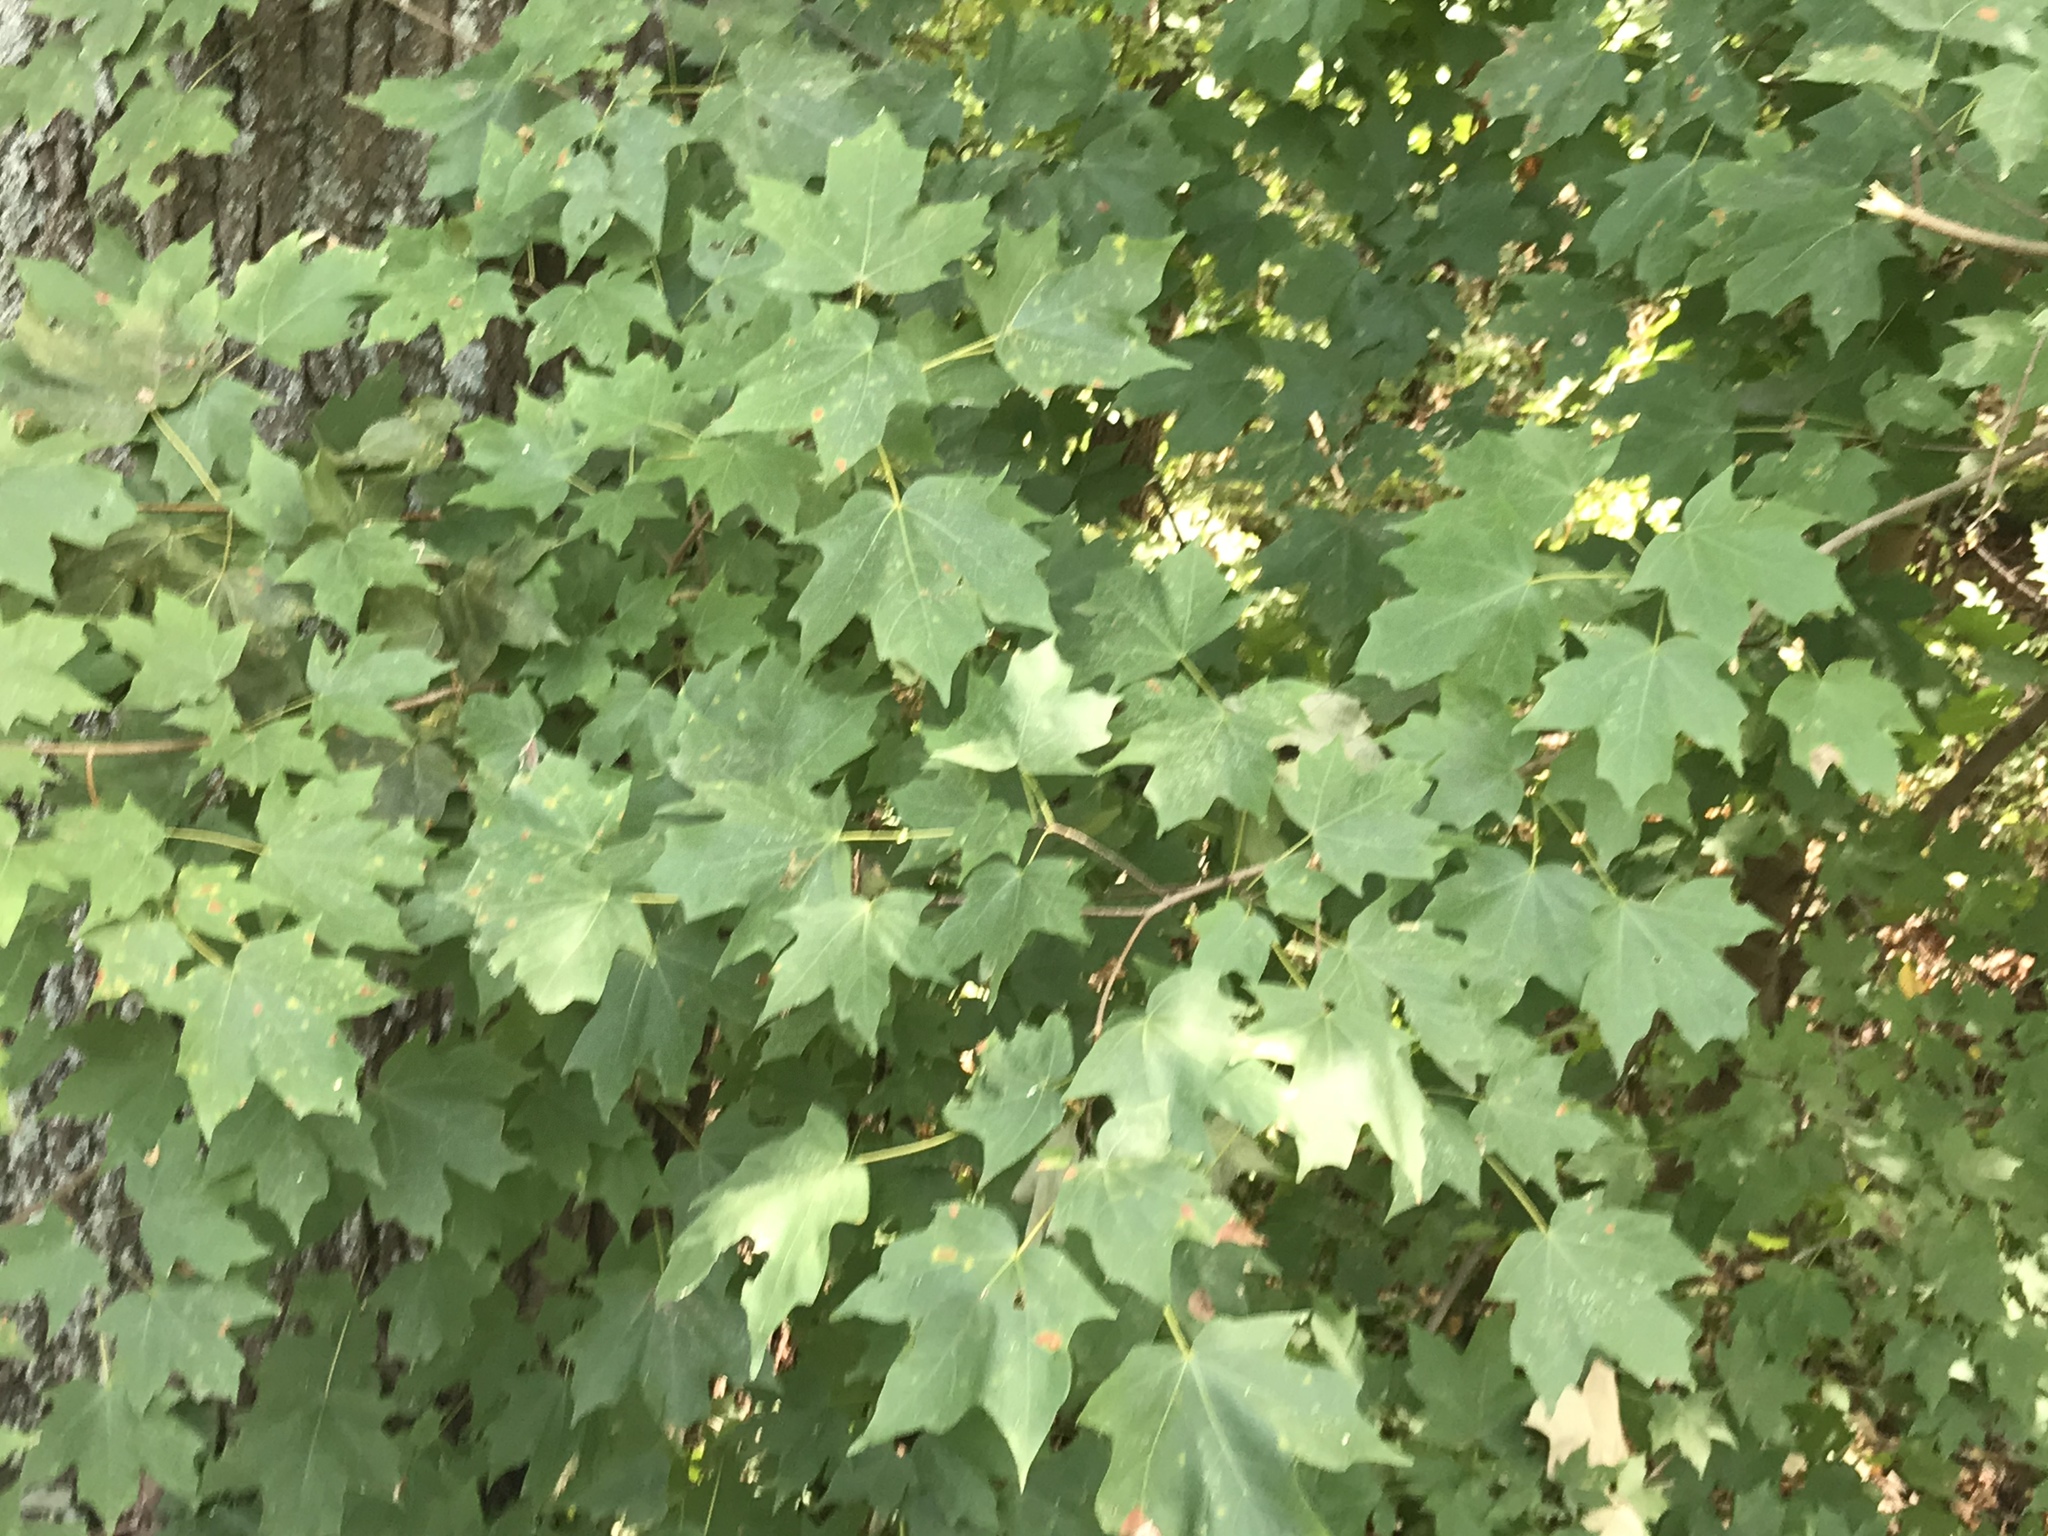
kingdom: Plantae
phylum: Tracheophyta
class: Magnoliopsida
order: Sapindales
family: Sapindaceae
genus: Acer
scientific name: Acer floridanum
